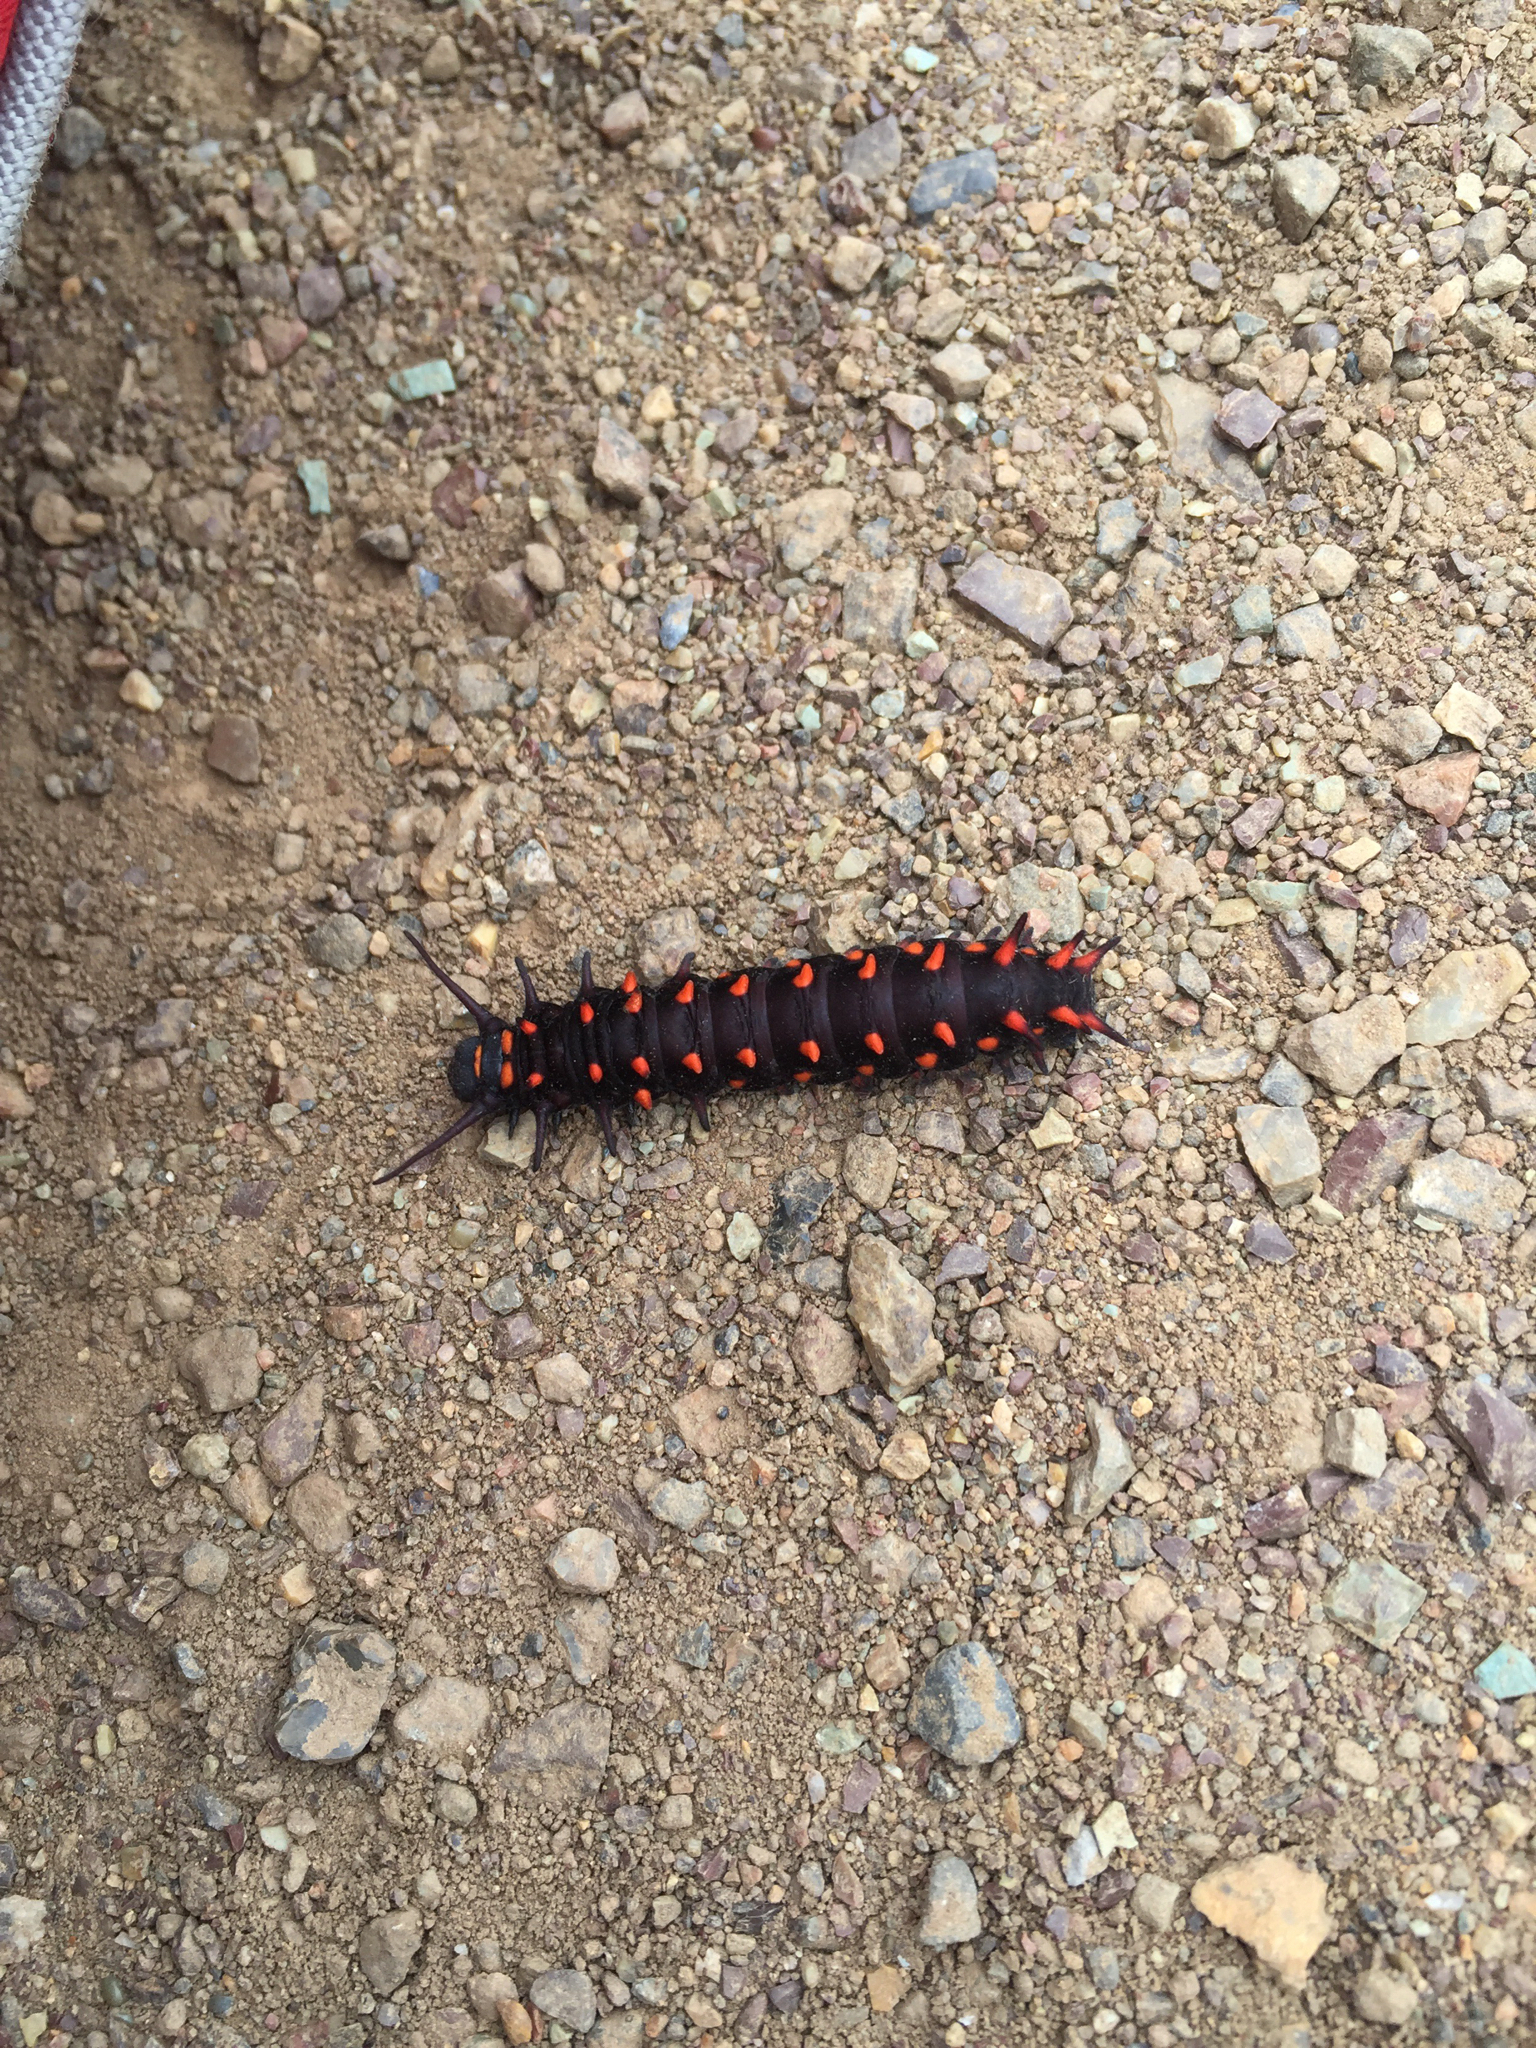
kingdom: Animalia
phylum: Arthropoda
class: Insecta
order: Lepidoptera
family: Papilionidae
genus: Battus
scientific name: Battus philenor
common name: Pipevine swallowtail
